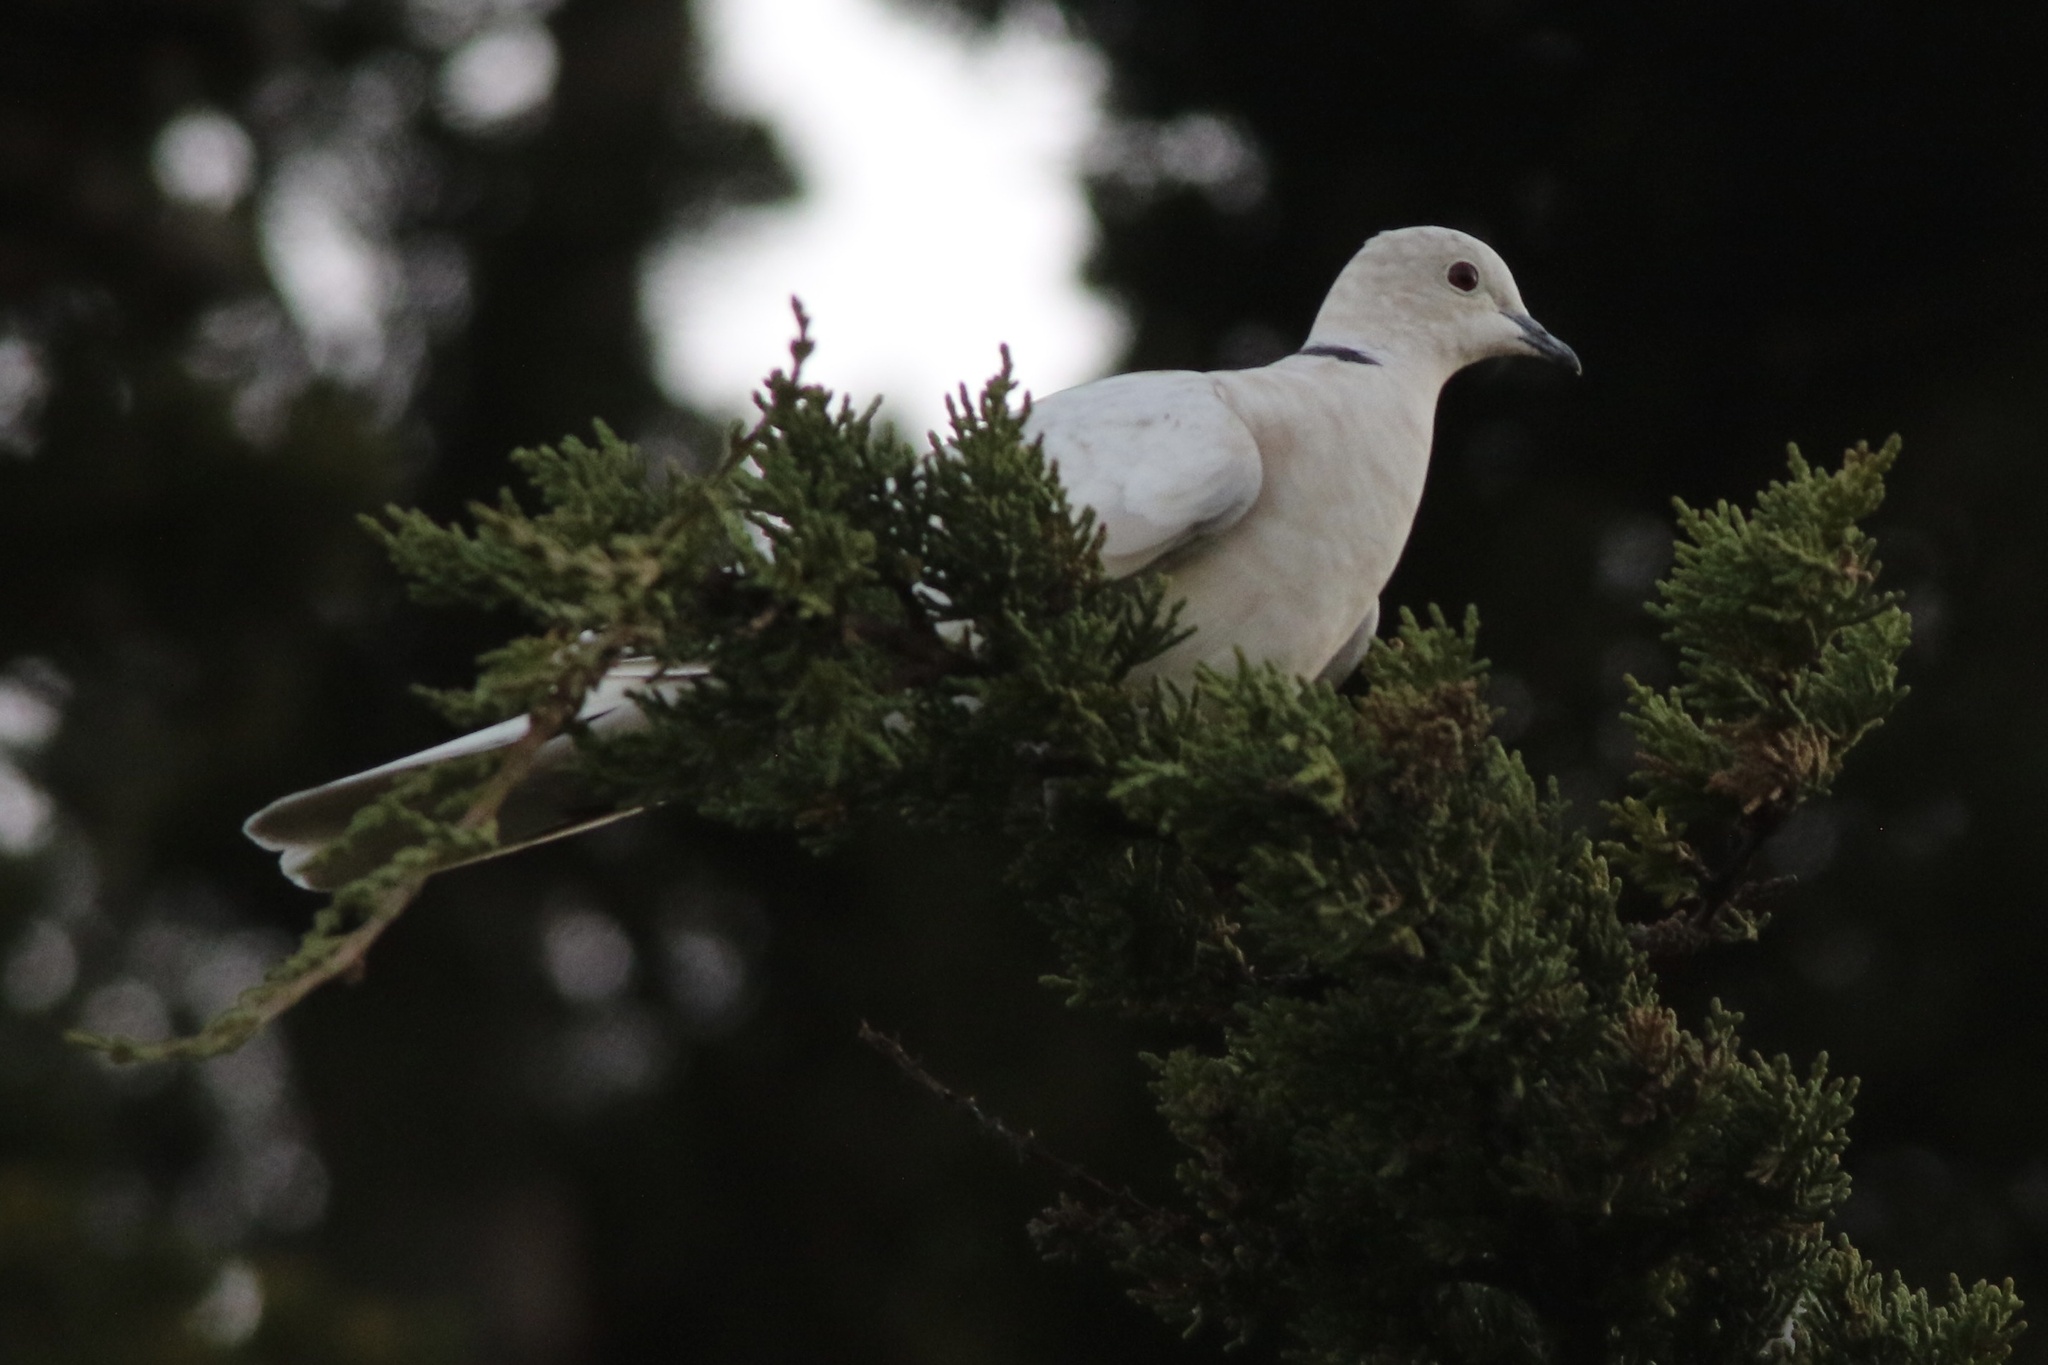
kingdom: Animalia
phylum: Chordata
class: Aves
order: Columbiformes
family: Columbidae
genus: Streptopelia
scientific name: Streptopelia decaocto
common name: Eurasian collared dove
